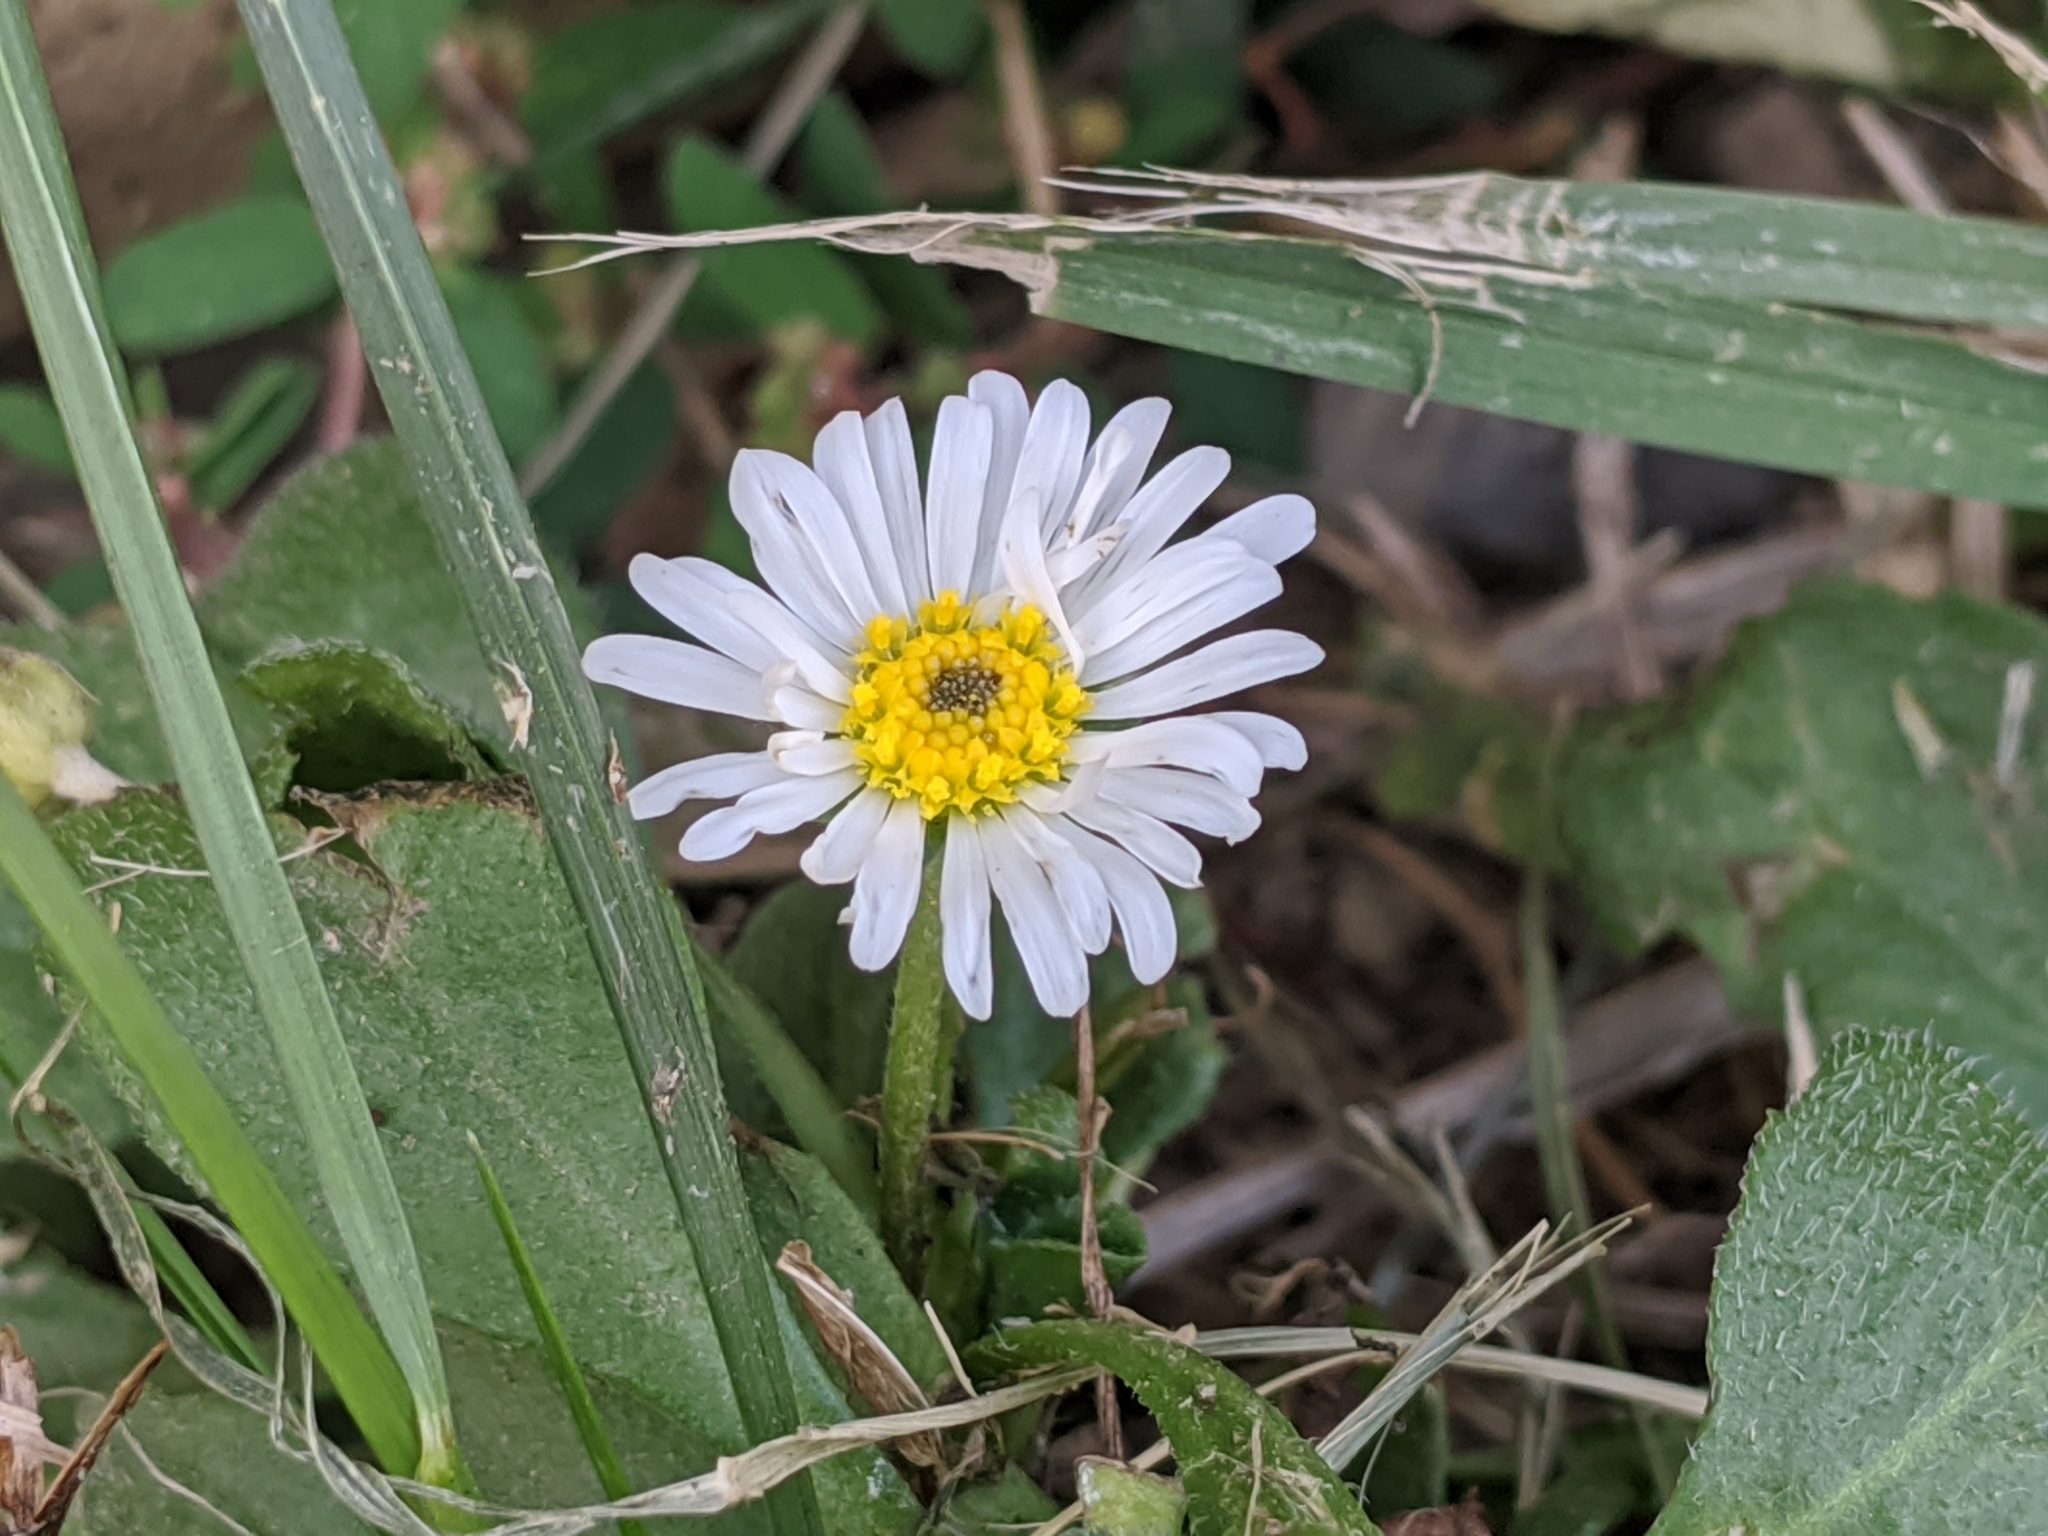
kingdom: Plantae
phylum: Tracheophyta
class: Magnoliopsida
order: Asterales
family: Asteraceae
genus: Bellis
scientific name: Bellis perennis
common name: Lawndaisy
